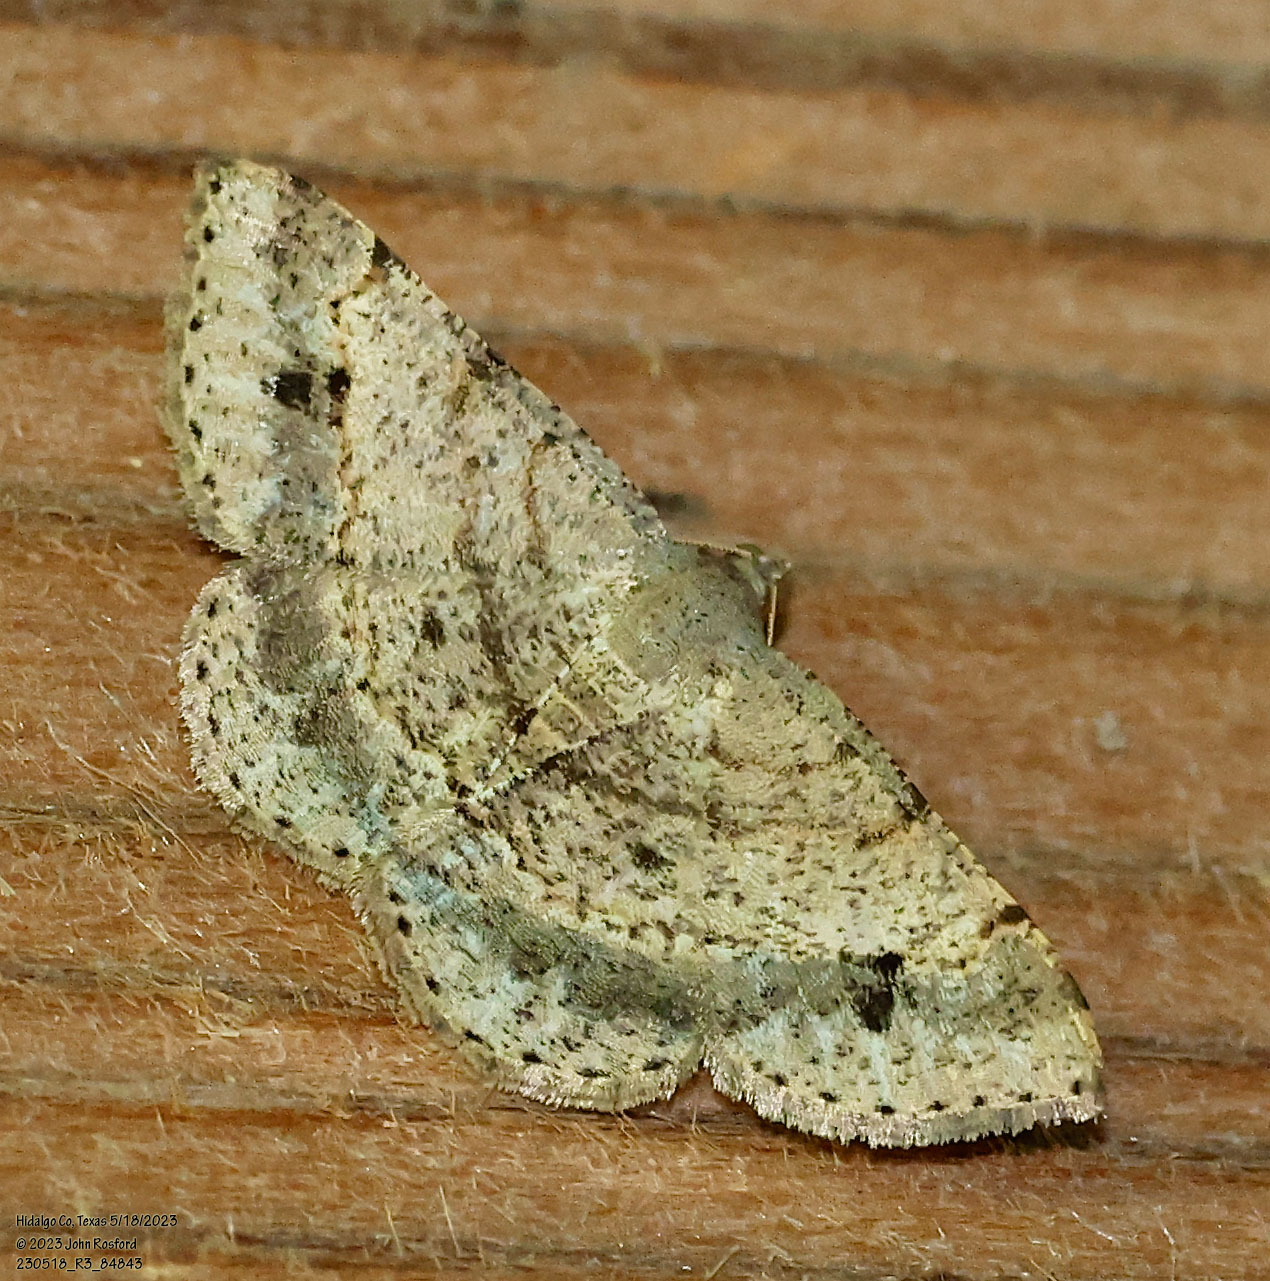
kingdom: Animalia
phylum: Arthropoda
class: Insecta
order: Lepidoptera
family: Geometridae
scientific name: Geometridae
